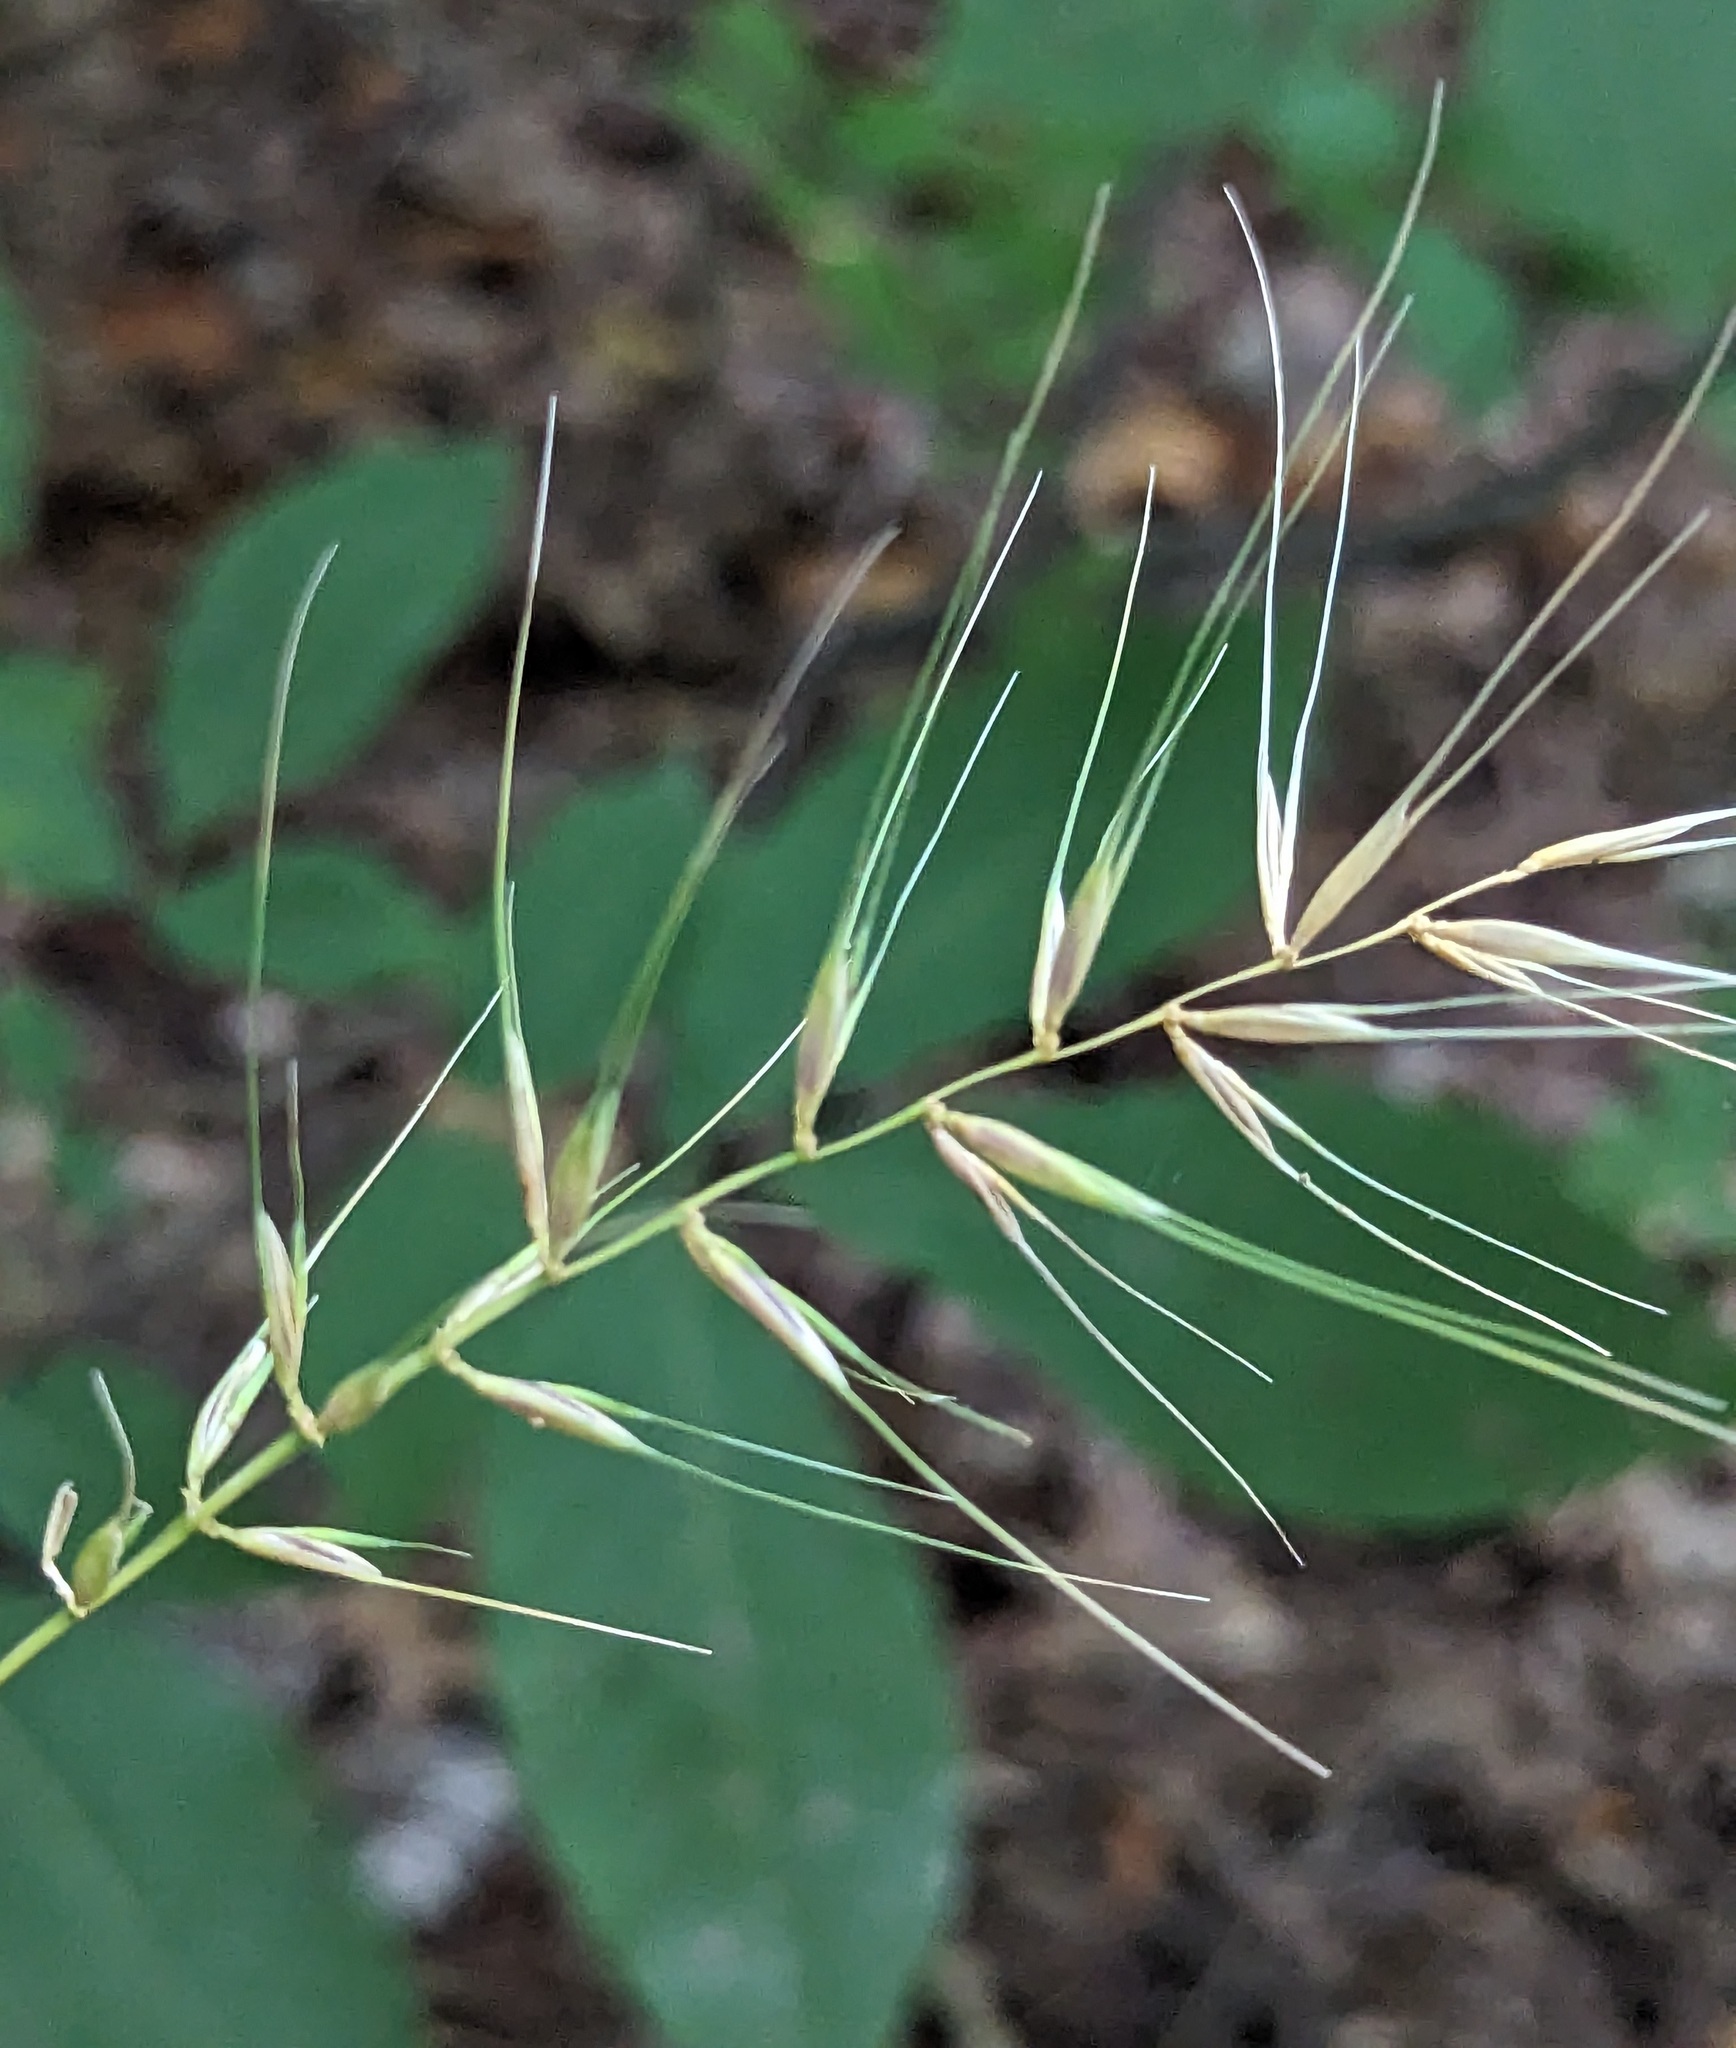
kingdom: Plantae
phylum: Tracheophyta
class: Liliopsida
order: Poales
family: Poaceae
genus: Elymus
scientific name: Elymus hystrix
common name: Bottlebrush grass
